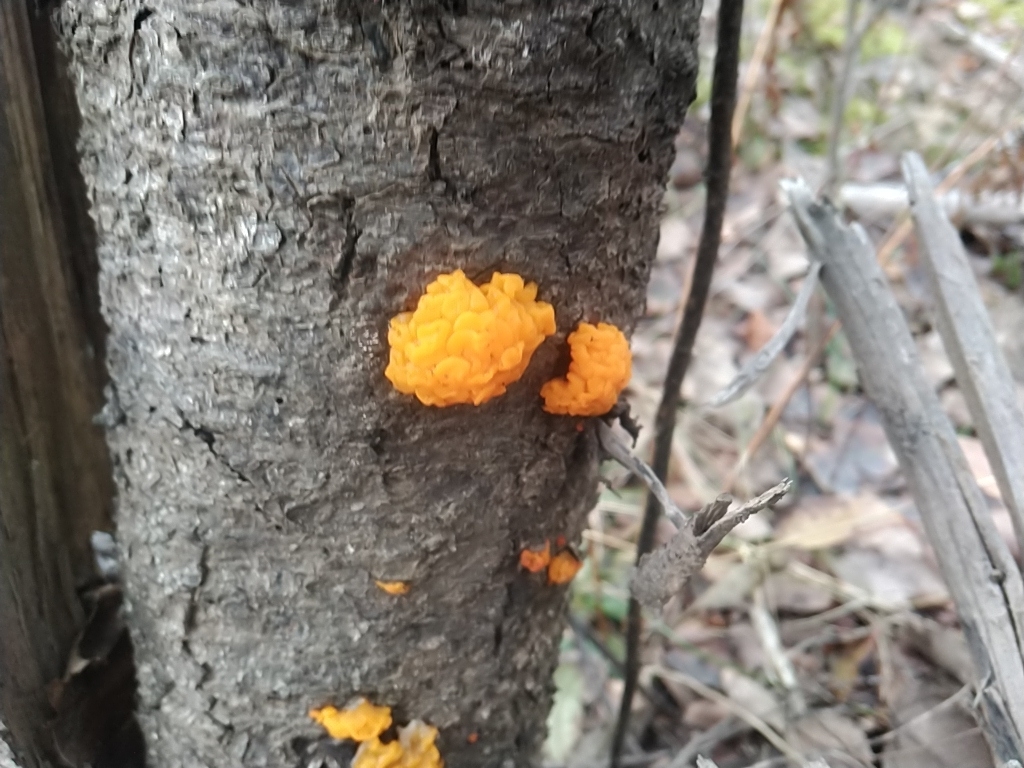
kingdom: Fungi
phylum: Basidiomycota
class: Dacrymycetes
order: Dacrymycetales
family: Dacrymycetaceae
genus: Dacrymyces
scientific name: Dacrymyces chrysospermus
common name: Orange jelly spot
